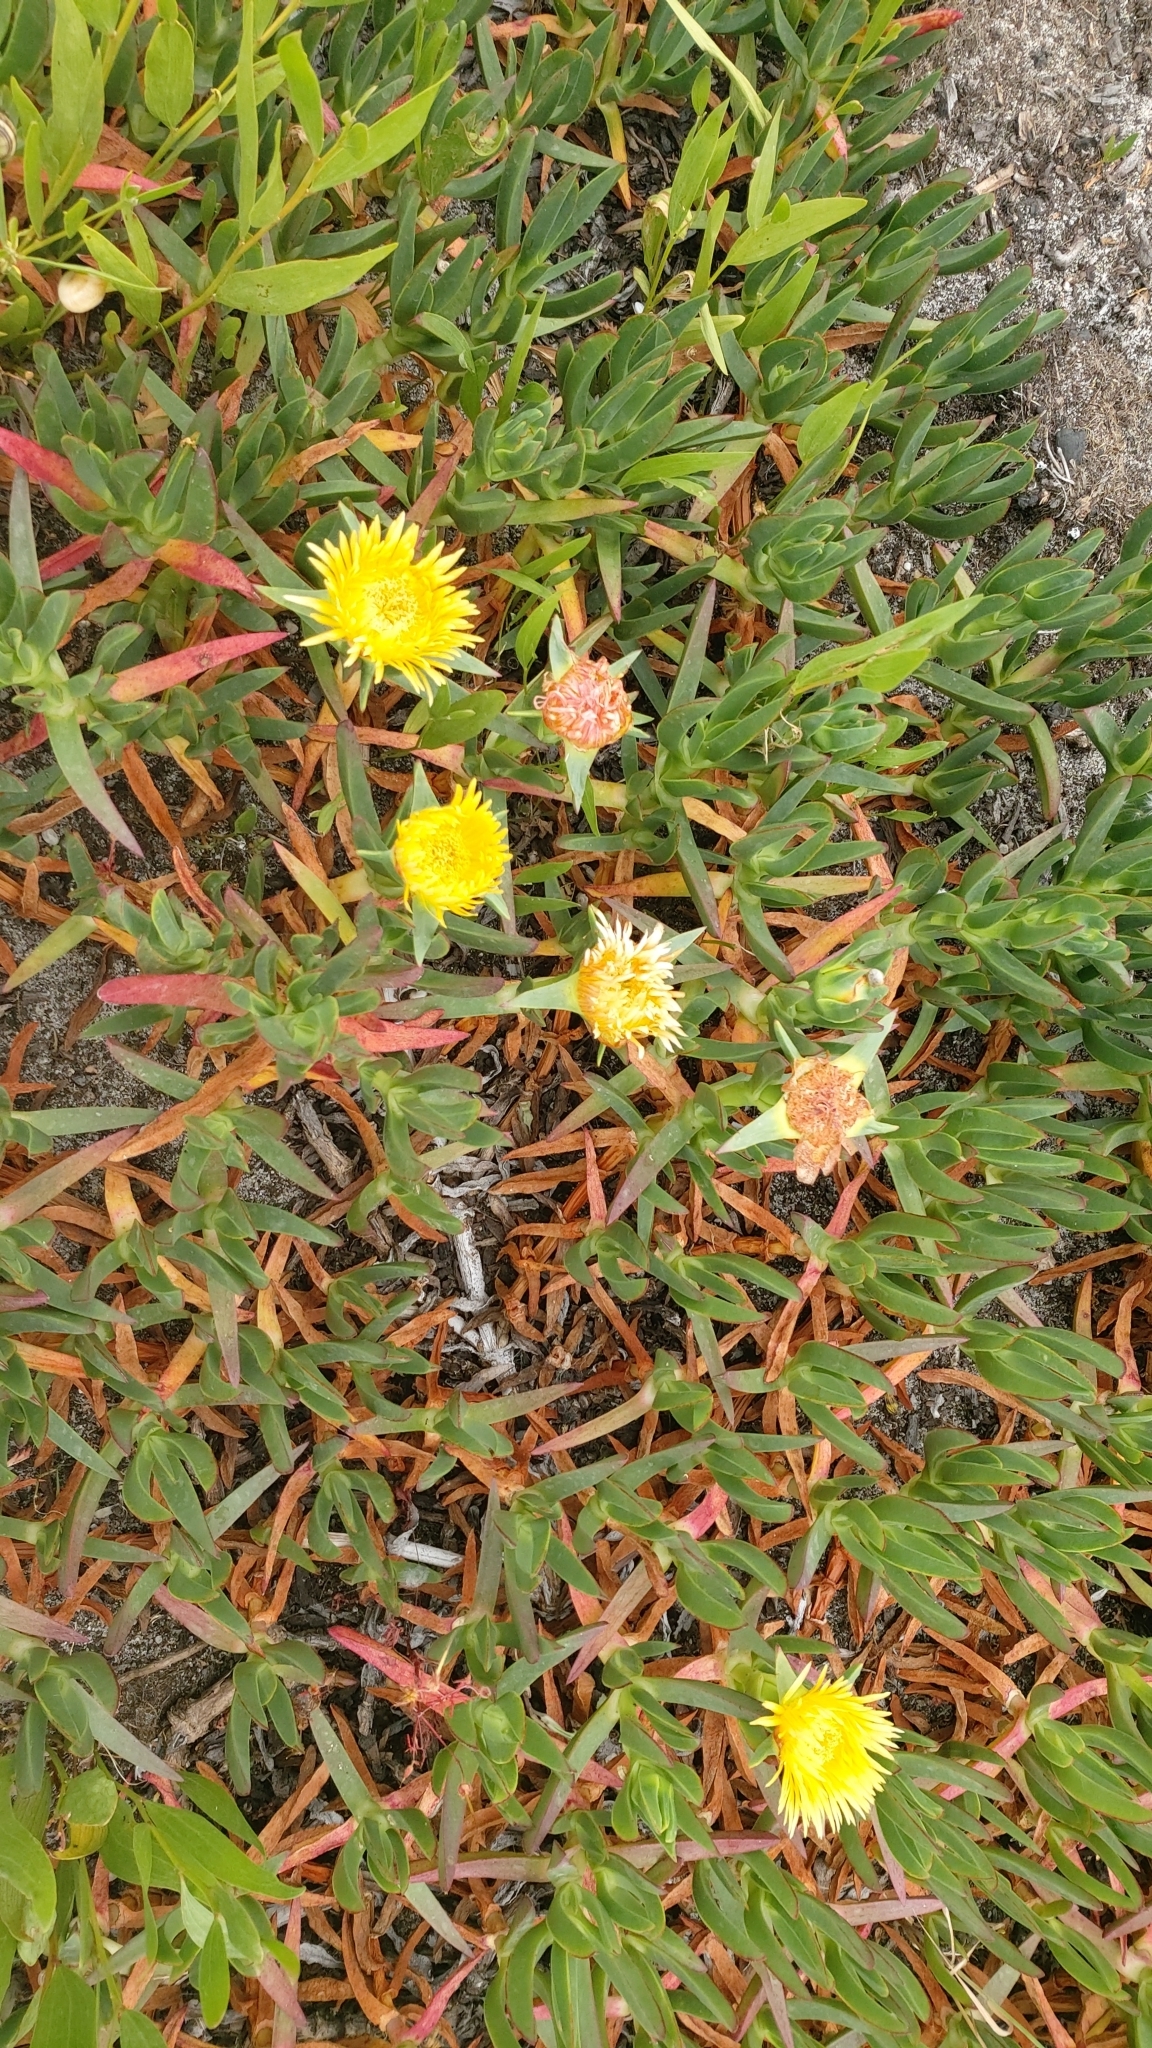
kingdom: Plantae
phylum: Tracheophyta
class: Magnoliopsida
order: Caryophyllales
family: Aizoaceae
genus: Carpobrotus
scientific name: Carpobrotus edulis
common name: Hottentot-fig
